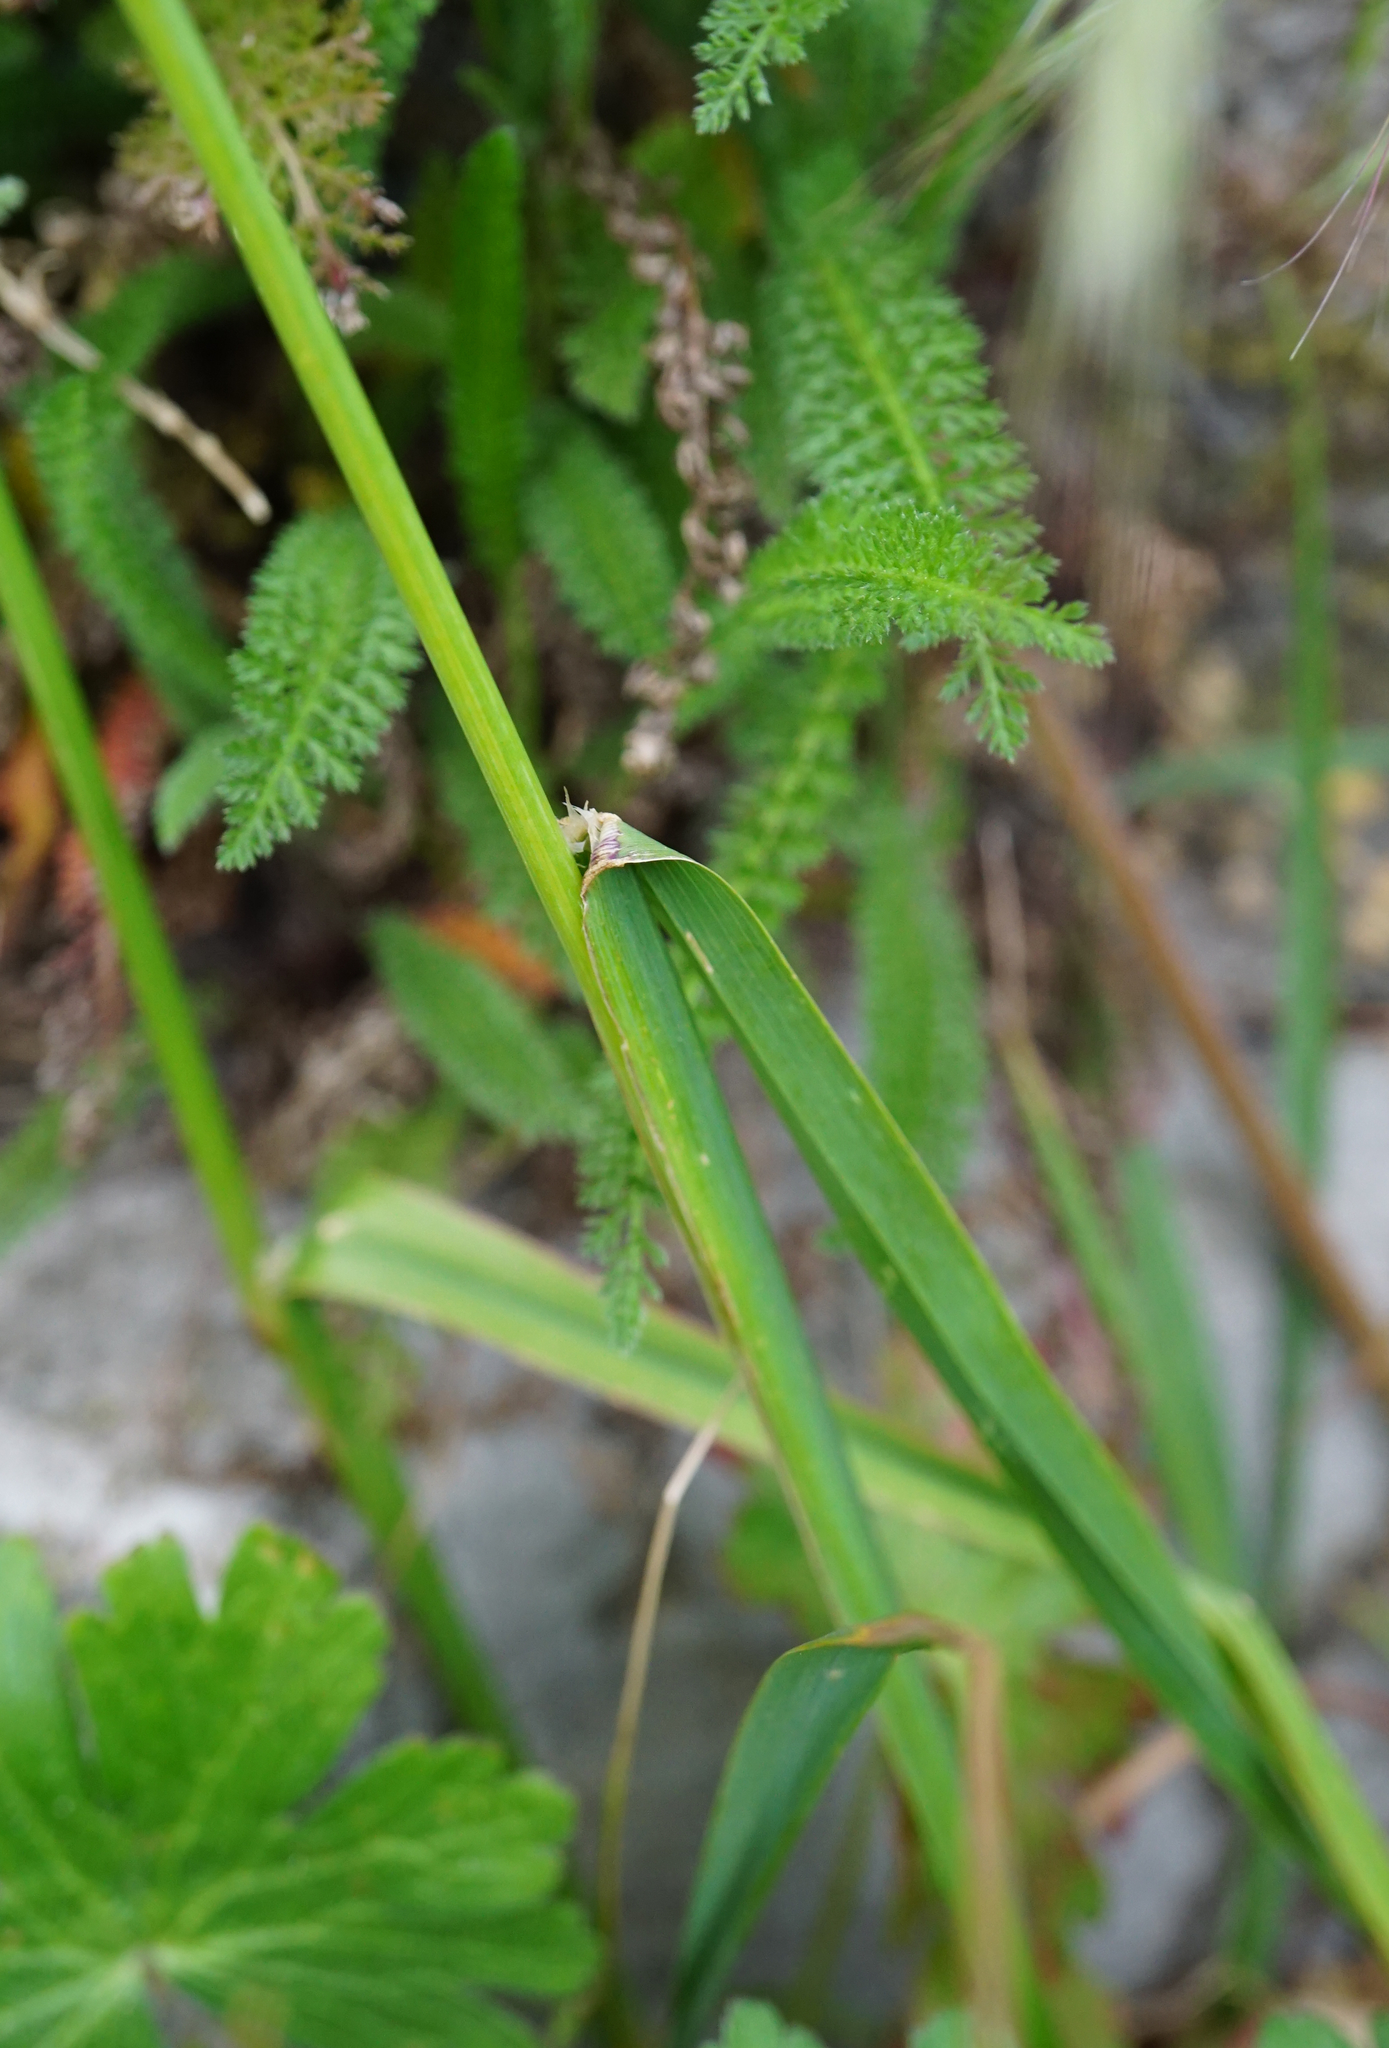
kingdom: Plantae
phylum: Tracheophyta
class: Liliopsida
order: Poales
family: Poaceae
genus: Dactylis
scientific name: Dactylis glomerata
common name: Orchardgrass
